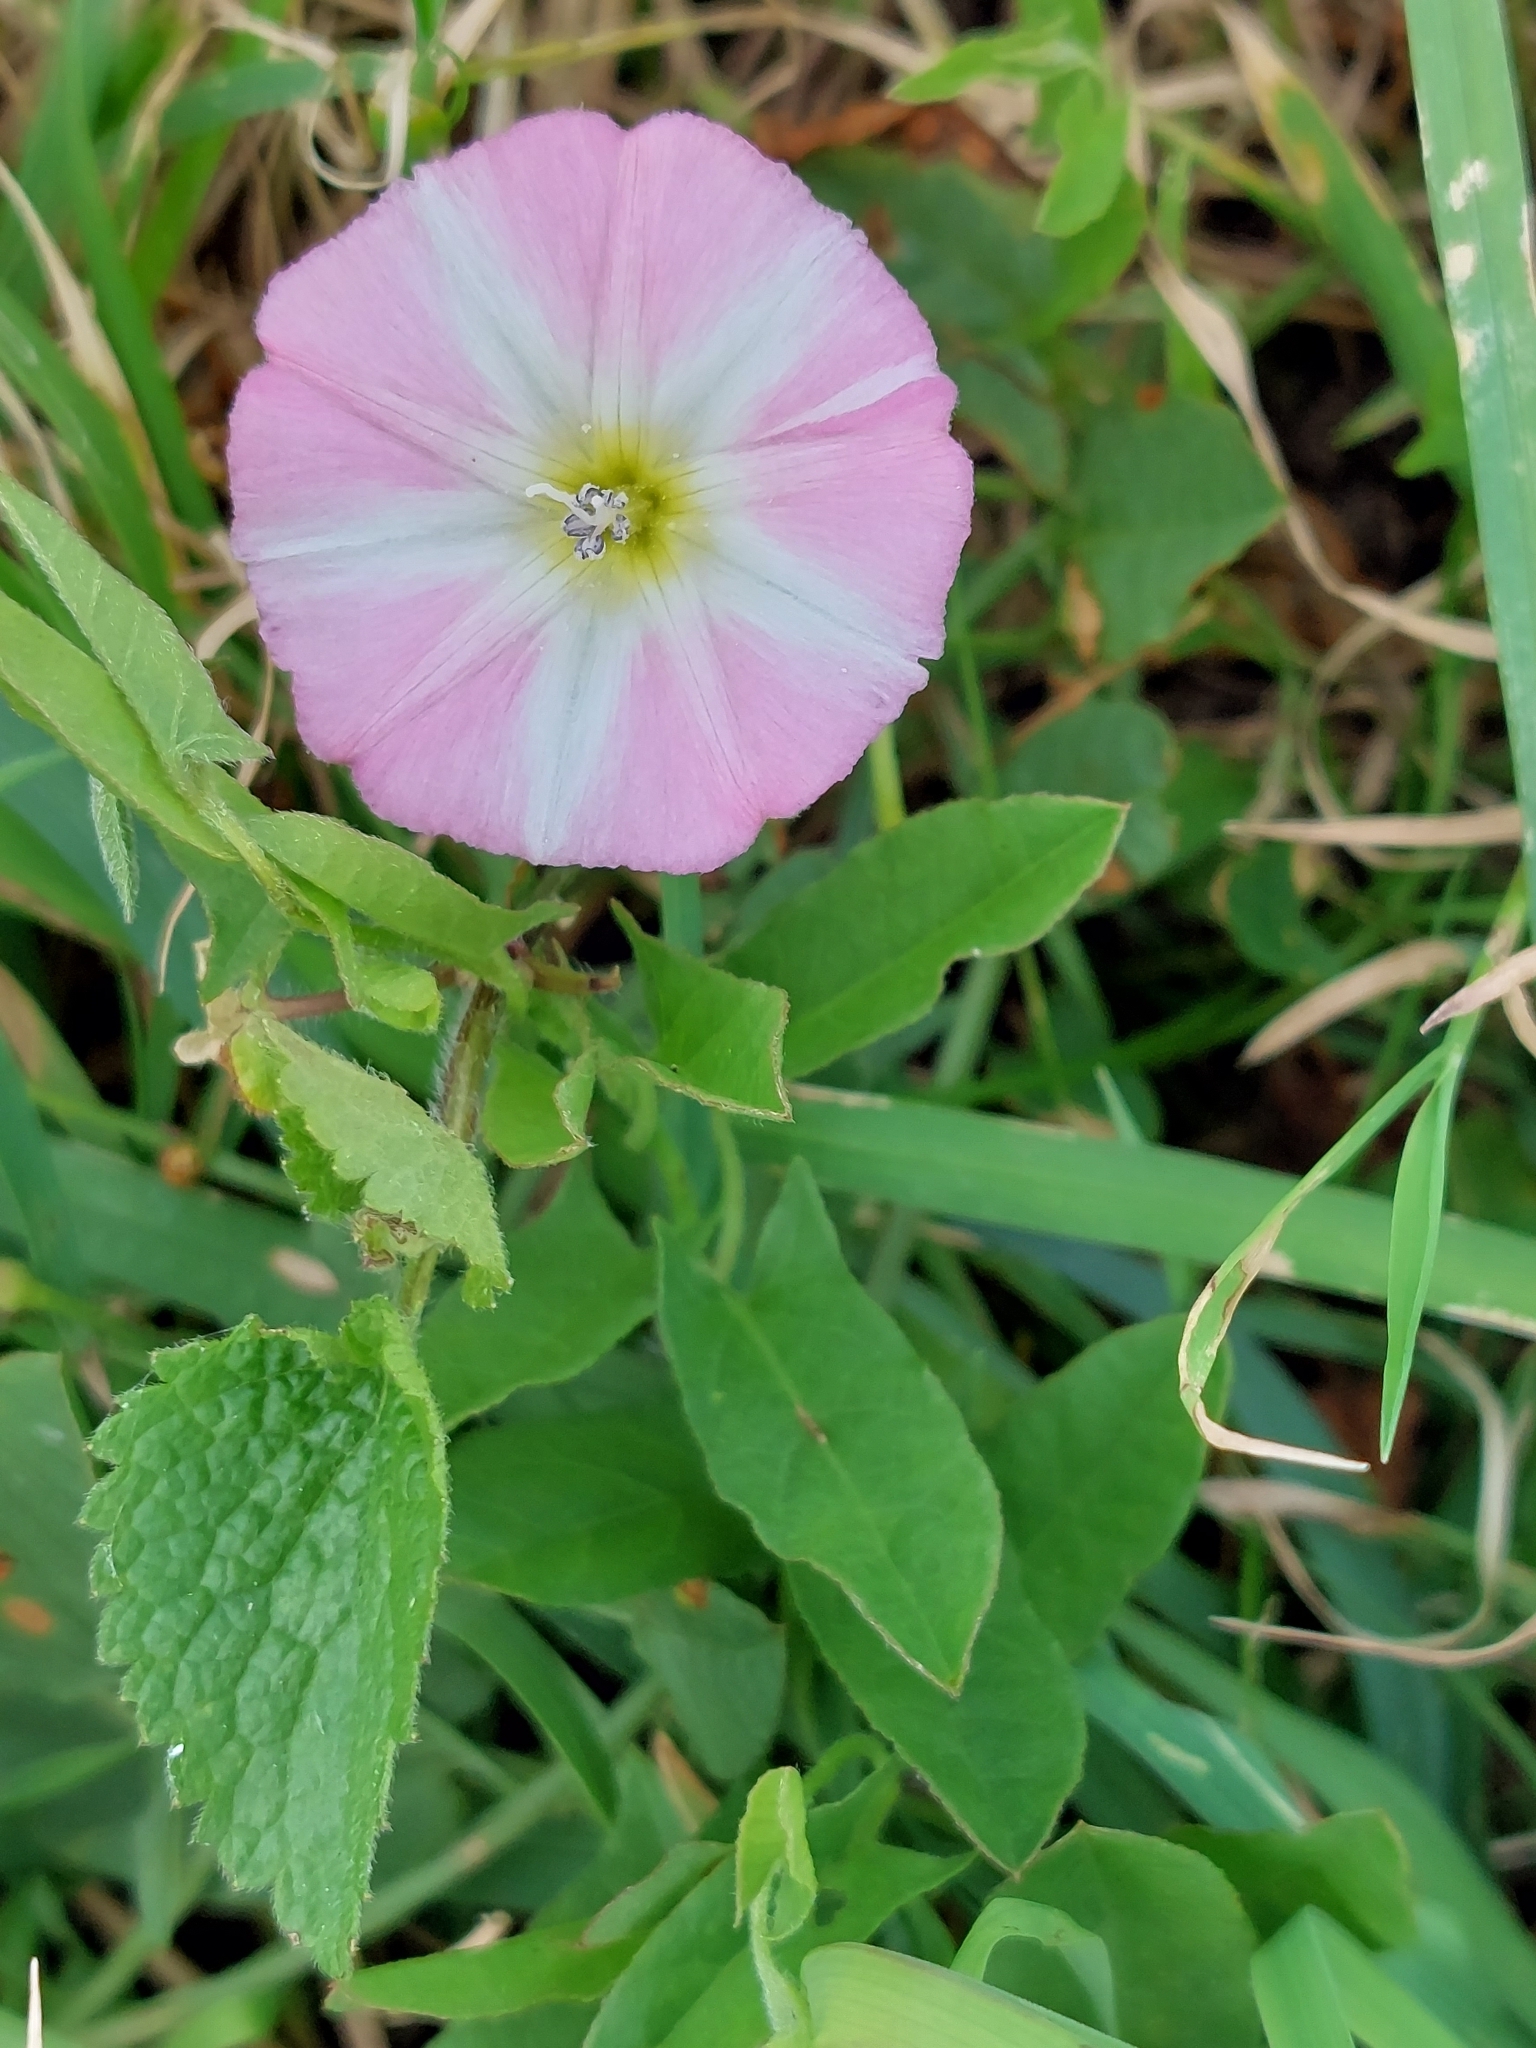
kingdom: Plantae
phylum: Tracheophyta
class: Magnoliopsida
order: Solanales
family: Convolvulaceae
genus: Convolvulus
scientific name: Convolvulus arvensis
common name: Field bindweed
